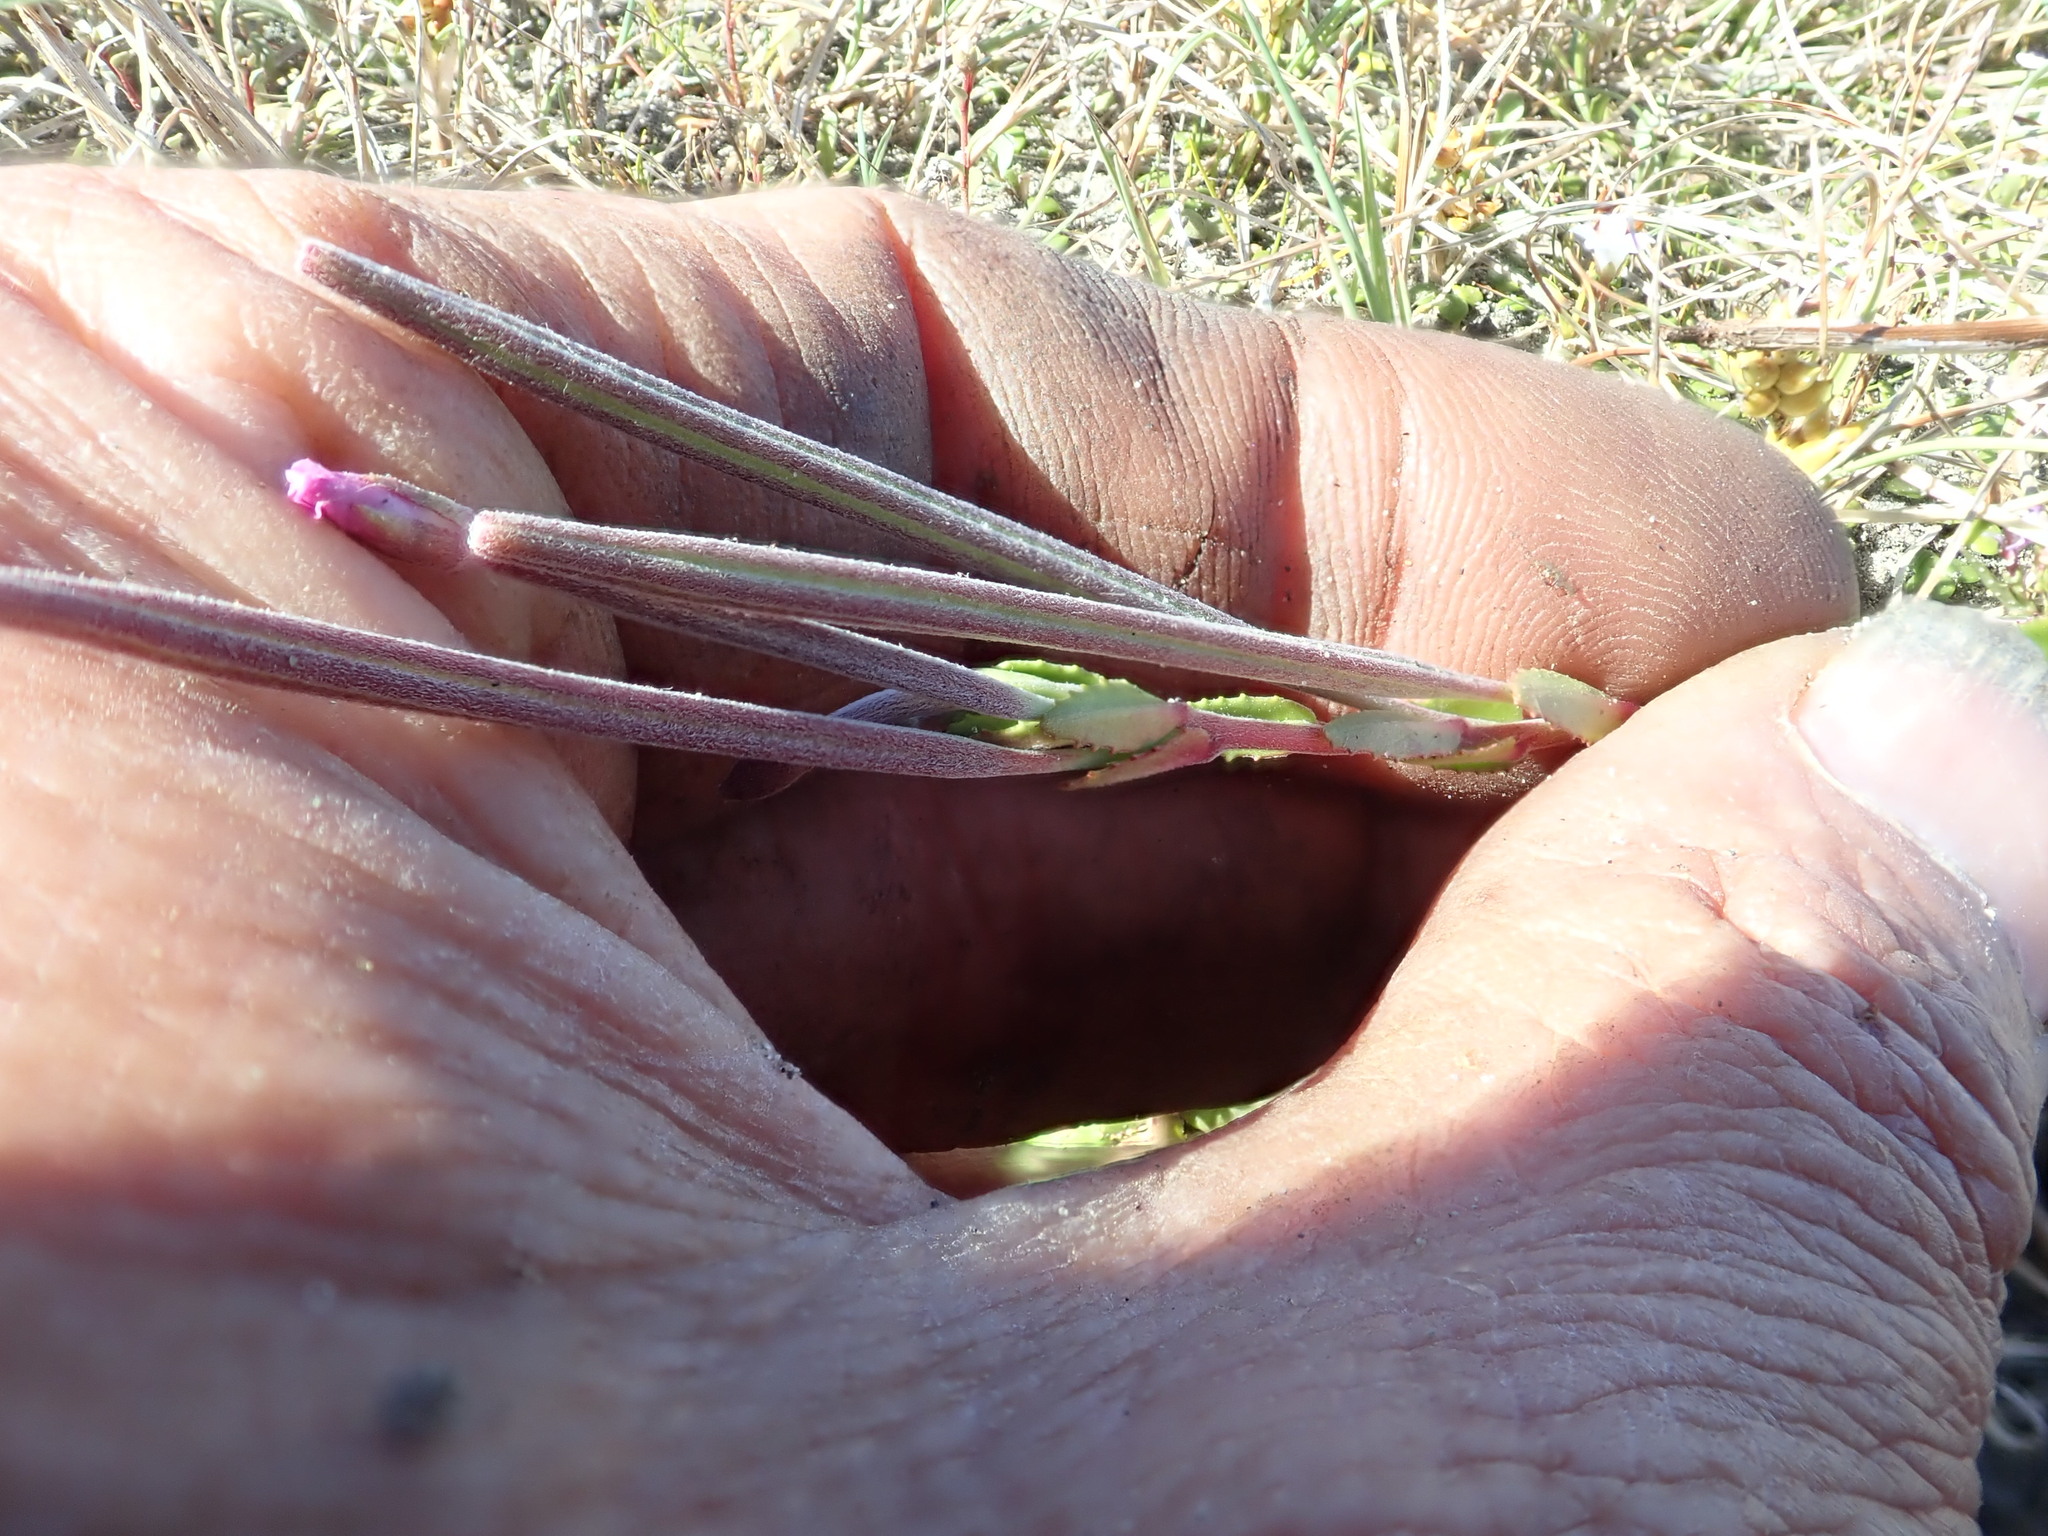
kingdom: Plantae
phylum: Tracheophyta
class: Magnoliopsida
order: Myrtales
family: Onagraceae
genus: Epilobium
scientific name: Epilobium billardiereanum
